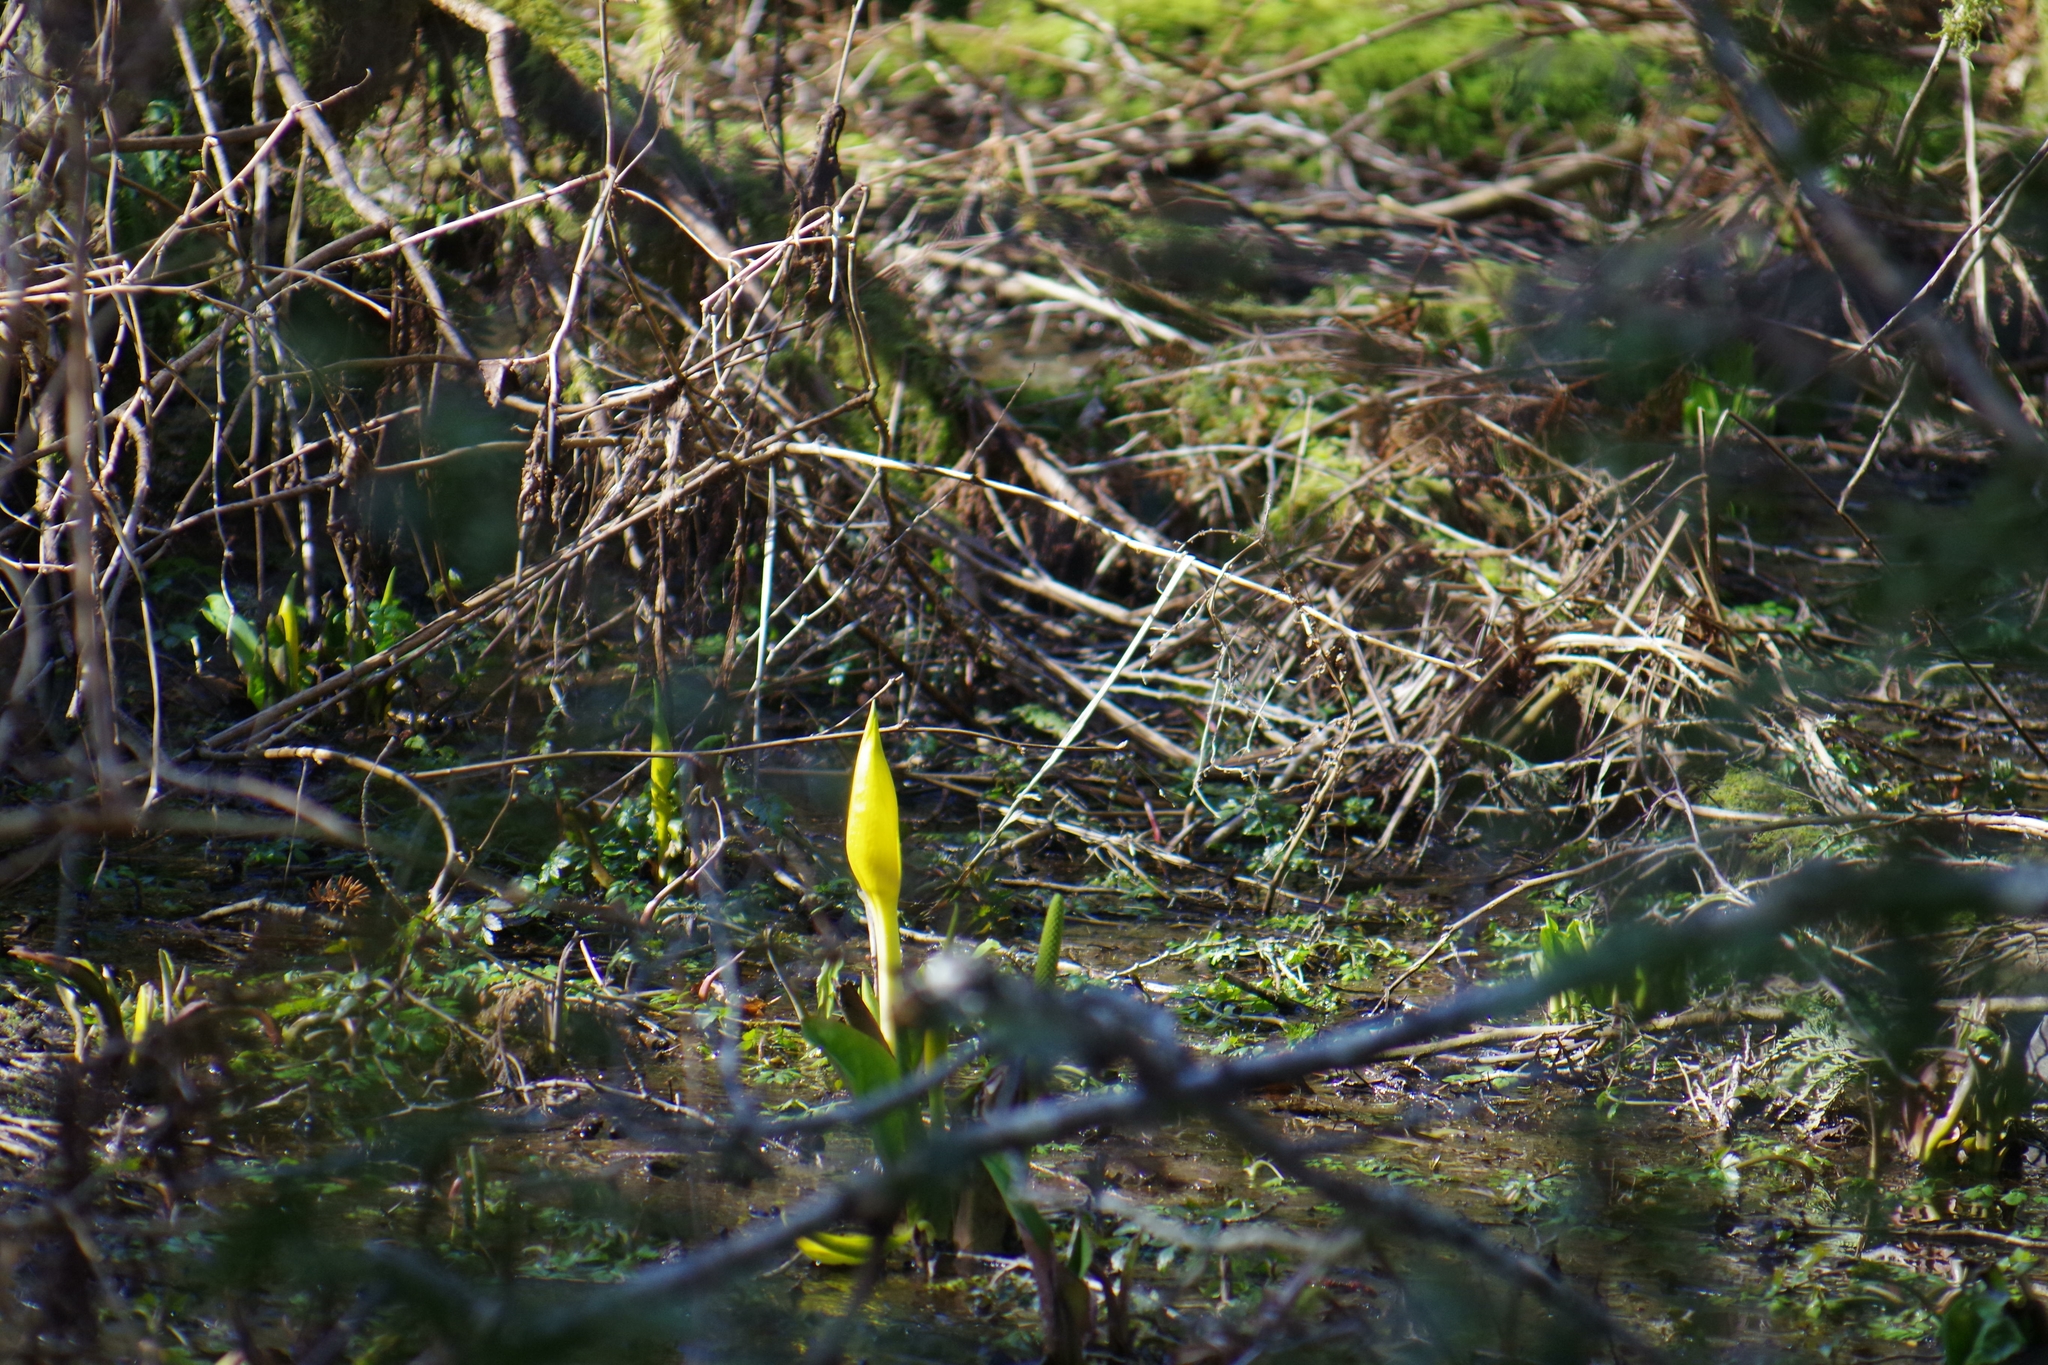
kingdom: Plantae
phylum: Tracheophyta
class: Liliopsida
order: Alismatales
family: Araceae
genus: Lysichiton
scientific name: Lysichiton americanus
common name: American skunk cabbage
